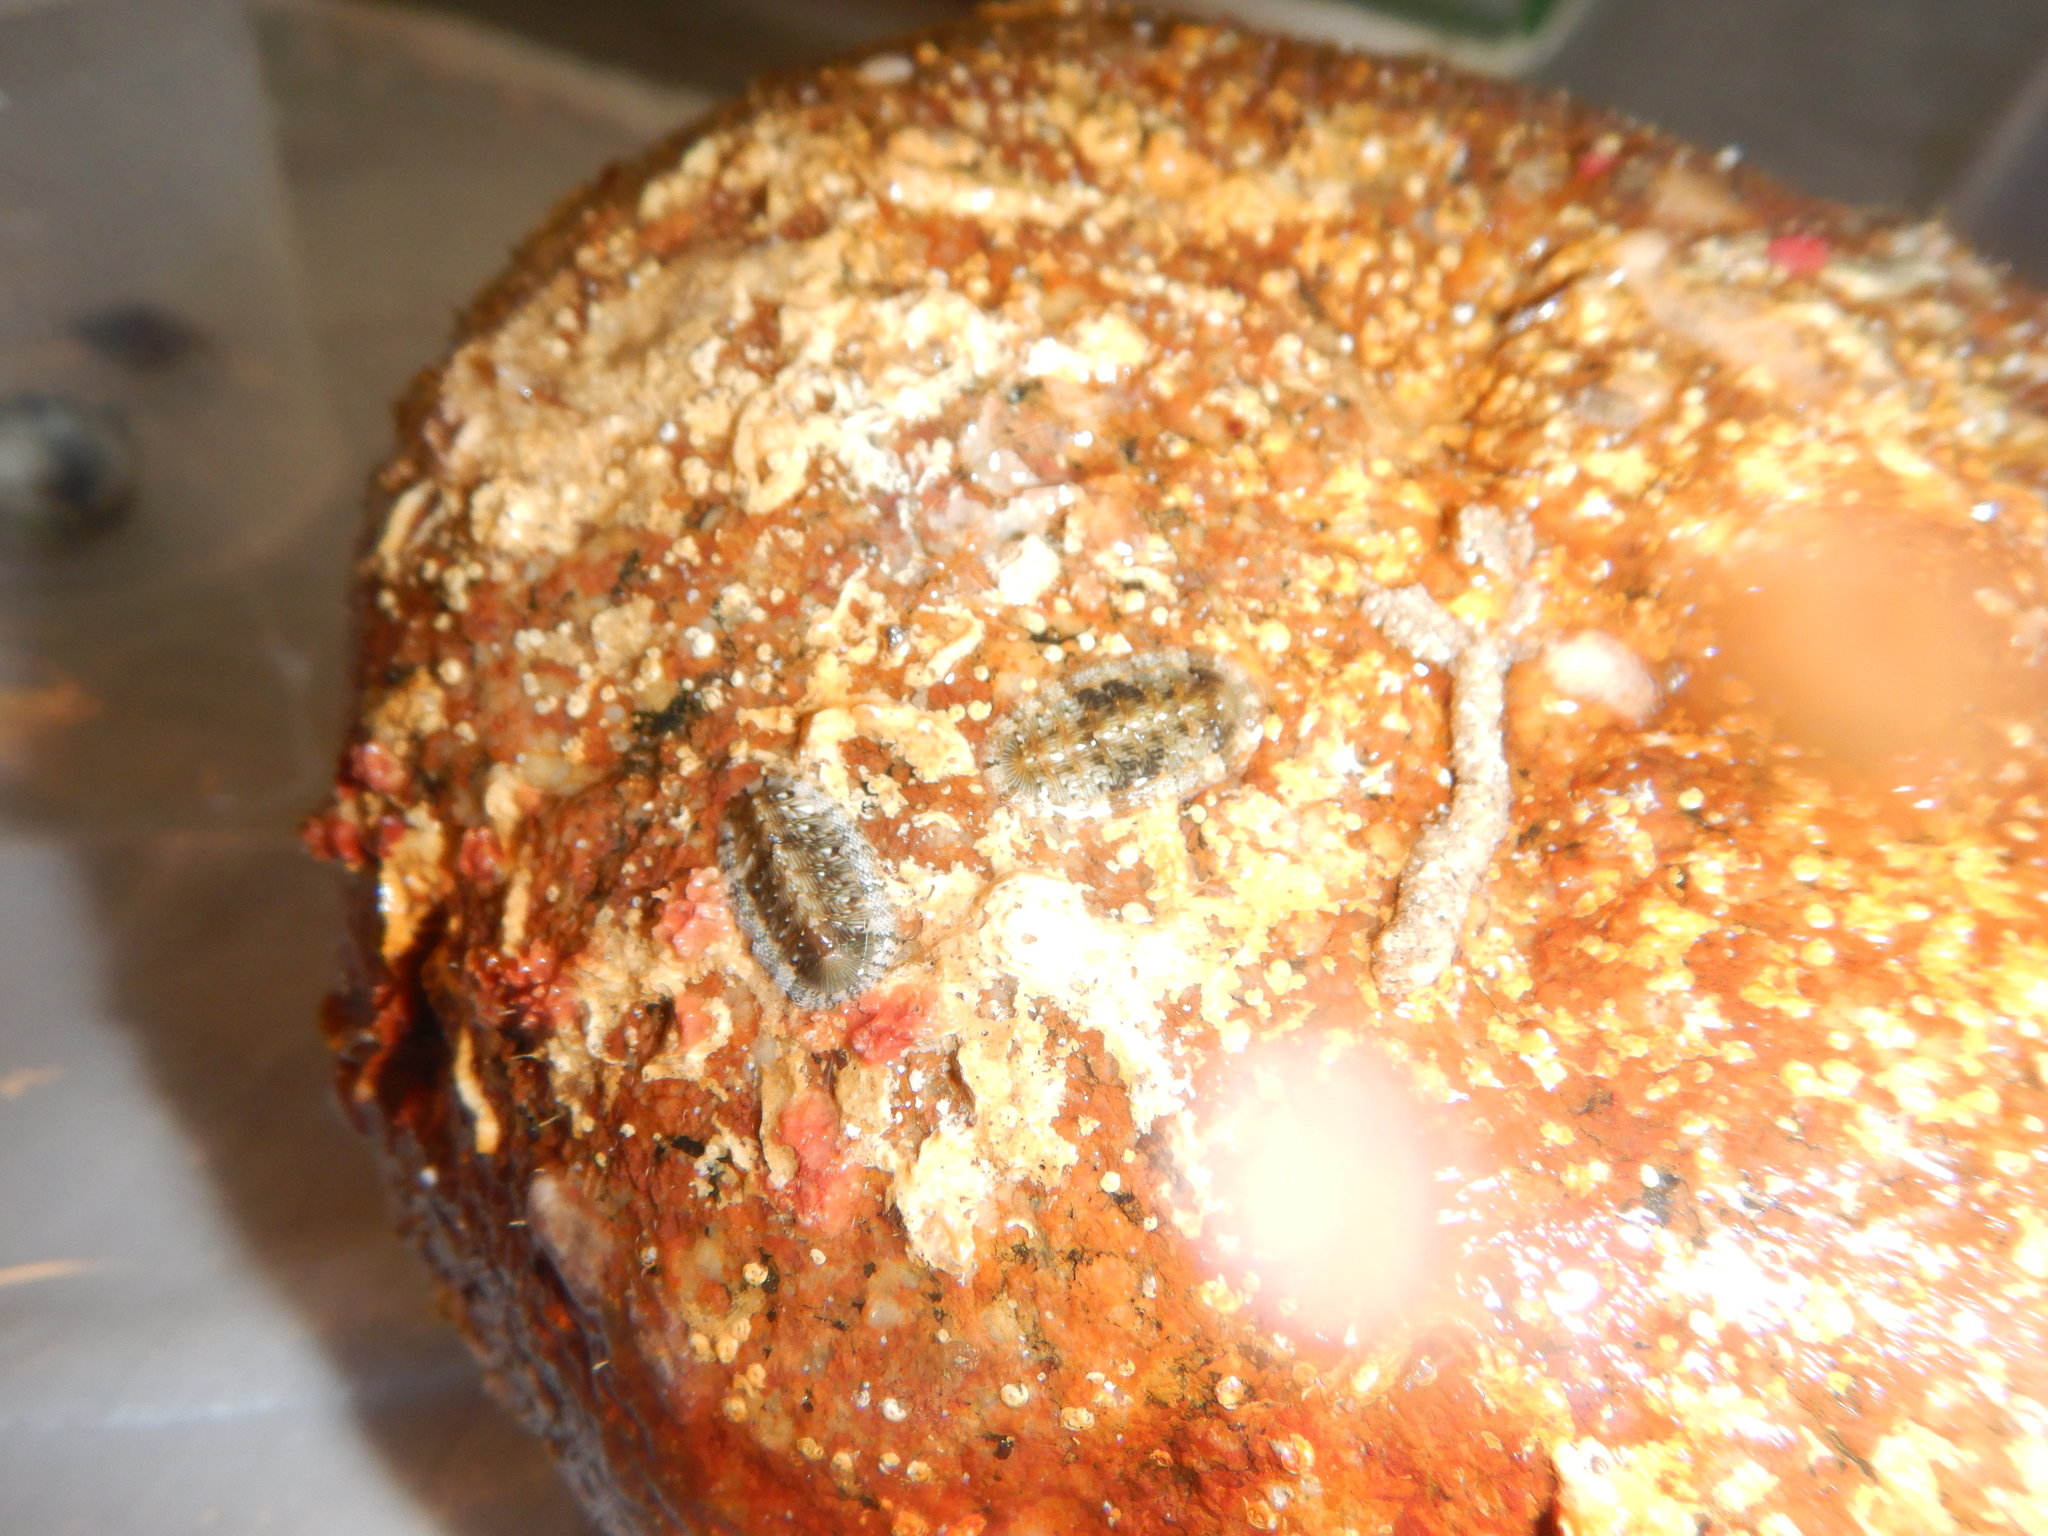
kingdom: Animalia
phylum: Mollusca
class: Polyplacophora
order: Chitonida
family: Chitonidae
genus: Rhyssoplax
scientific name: Rhyssoplax olivacea
